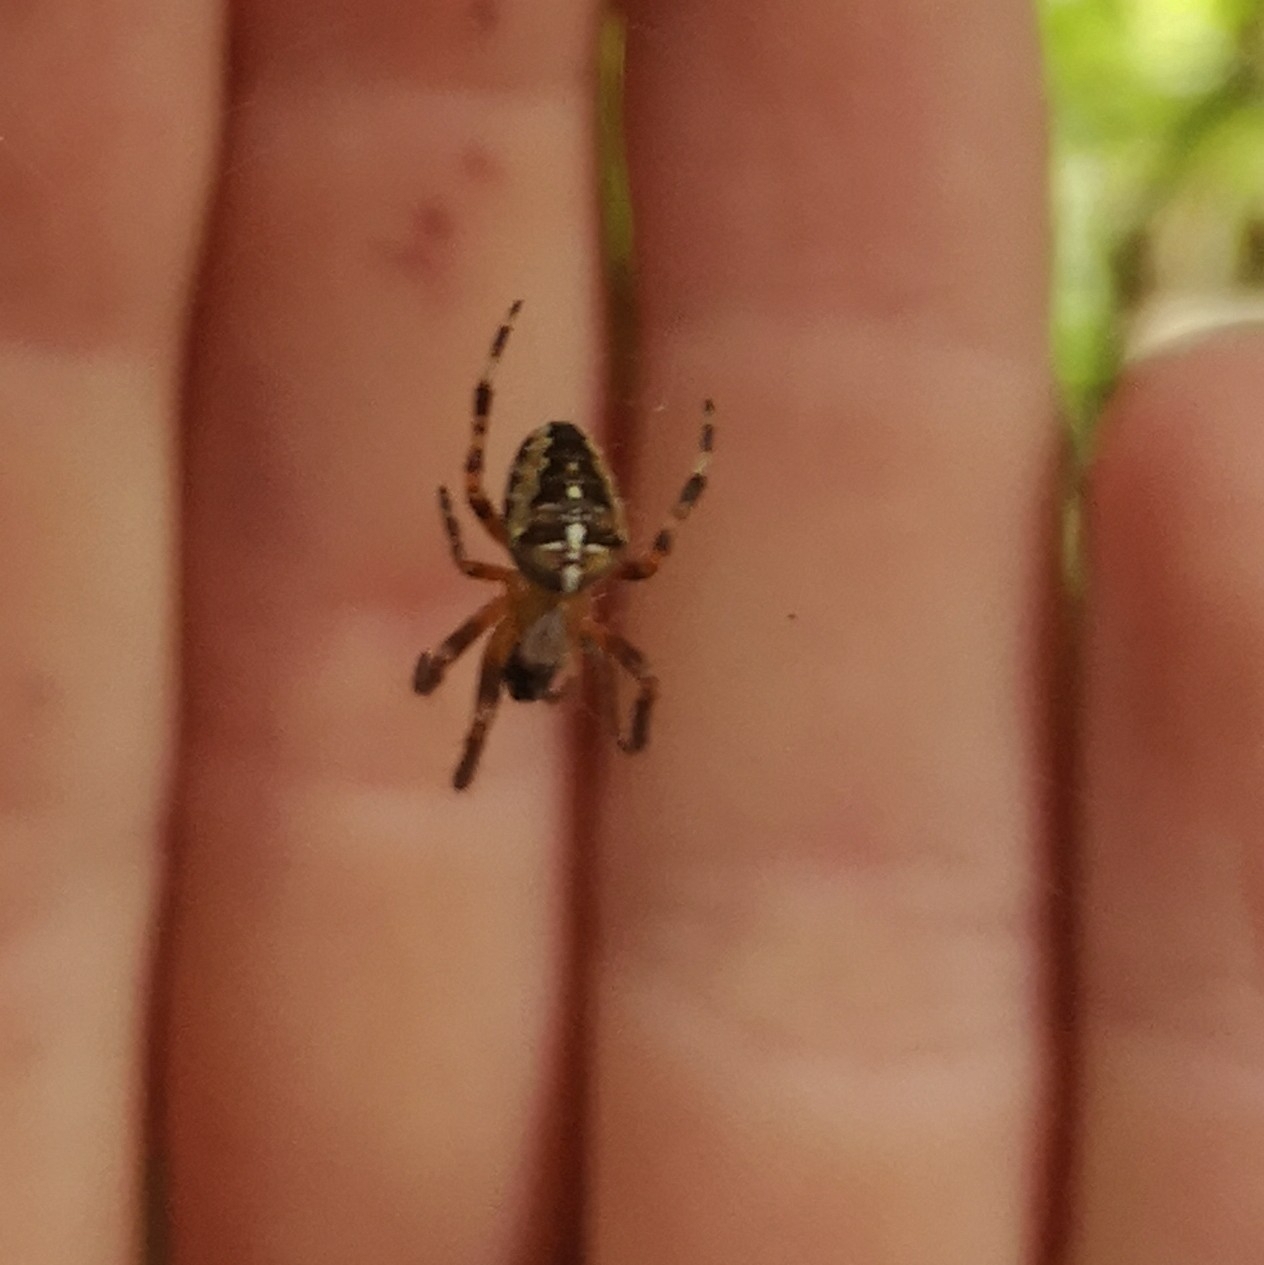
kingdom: Animalia
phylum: Arthropoda
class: Arachnida
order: Araneae
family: Araneidae
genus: Araneus
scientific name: Araneus diadematus
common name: Cross orbweaver
